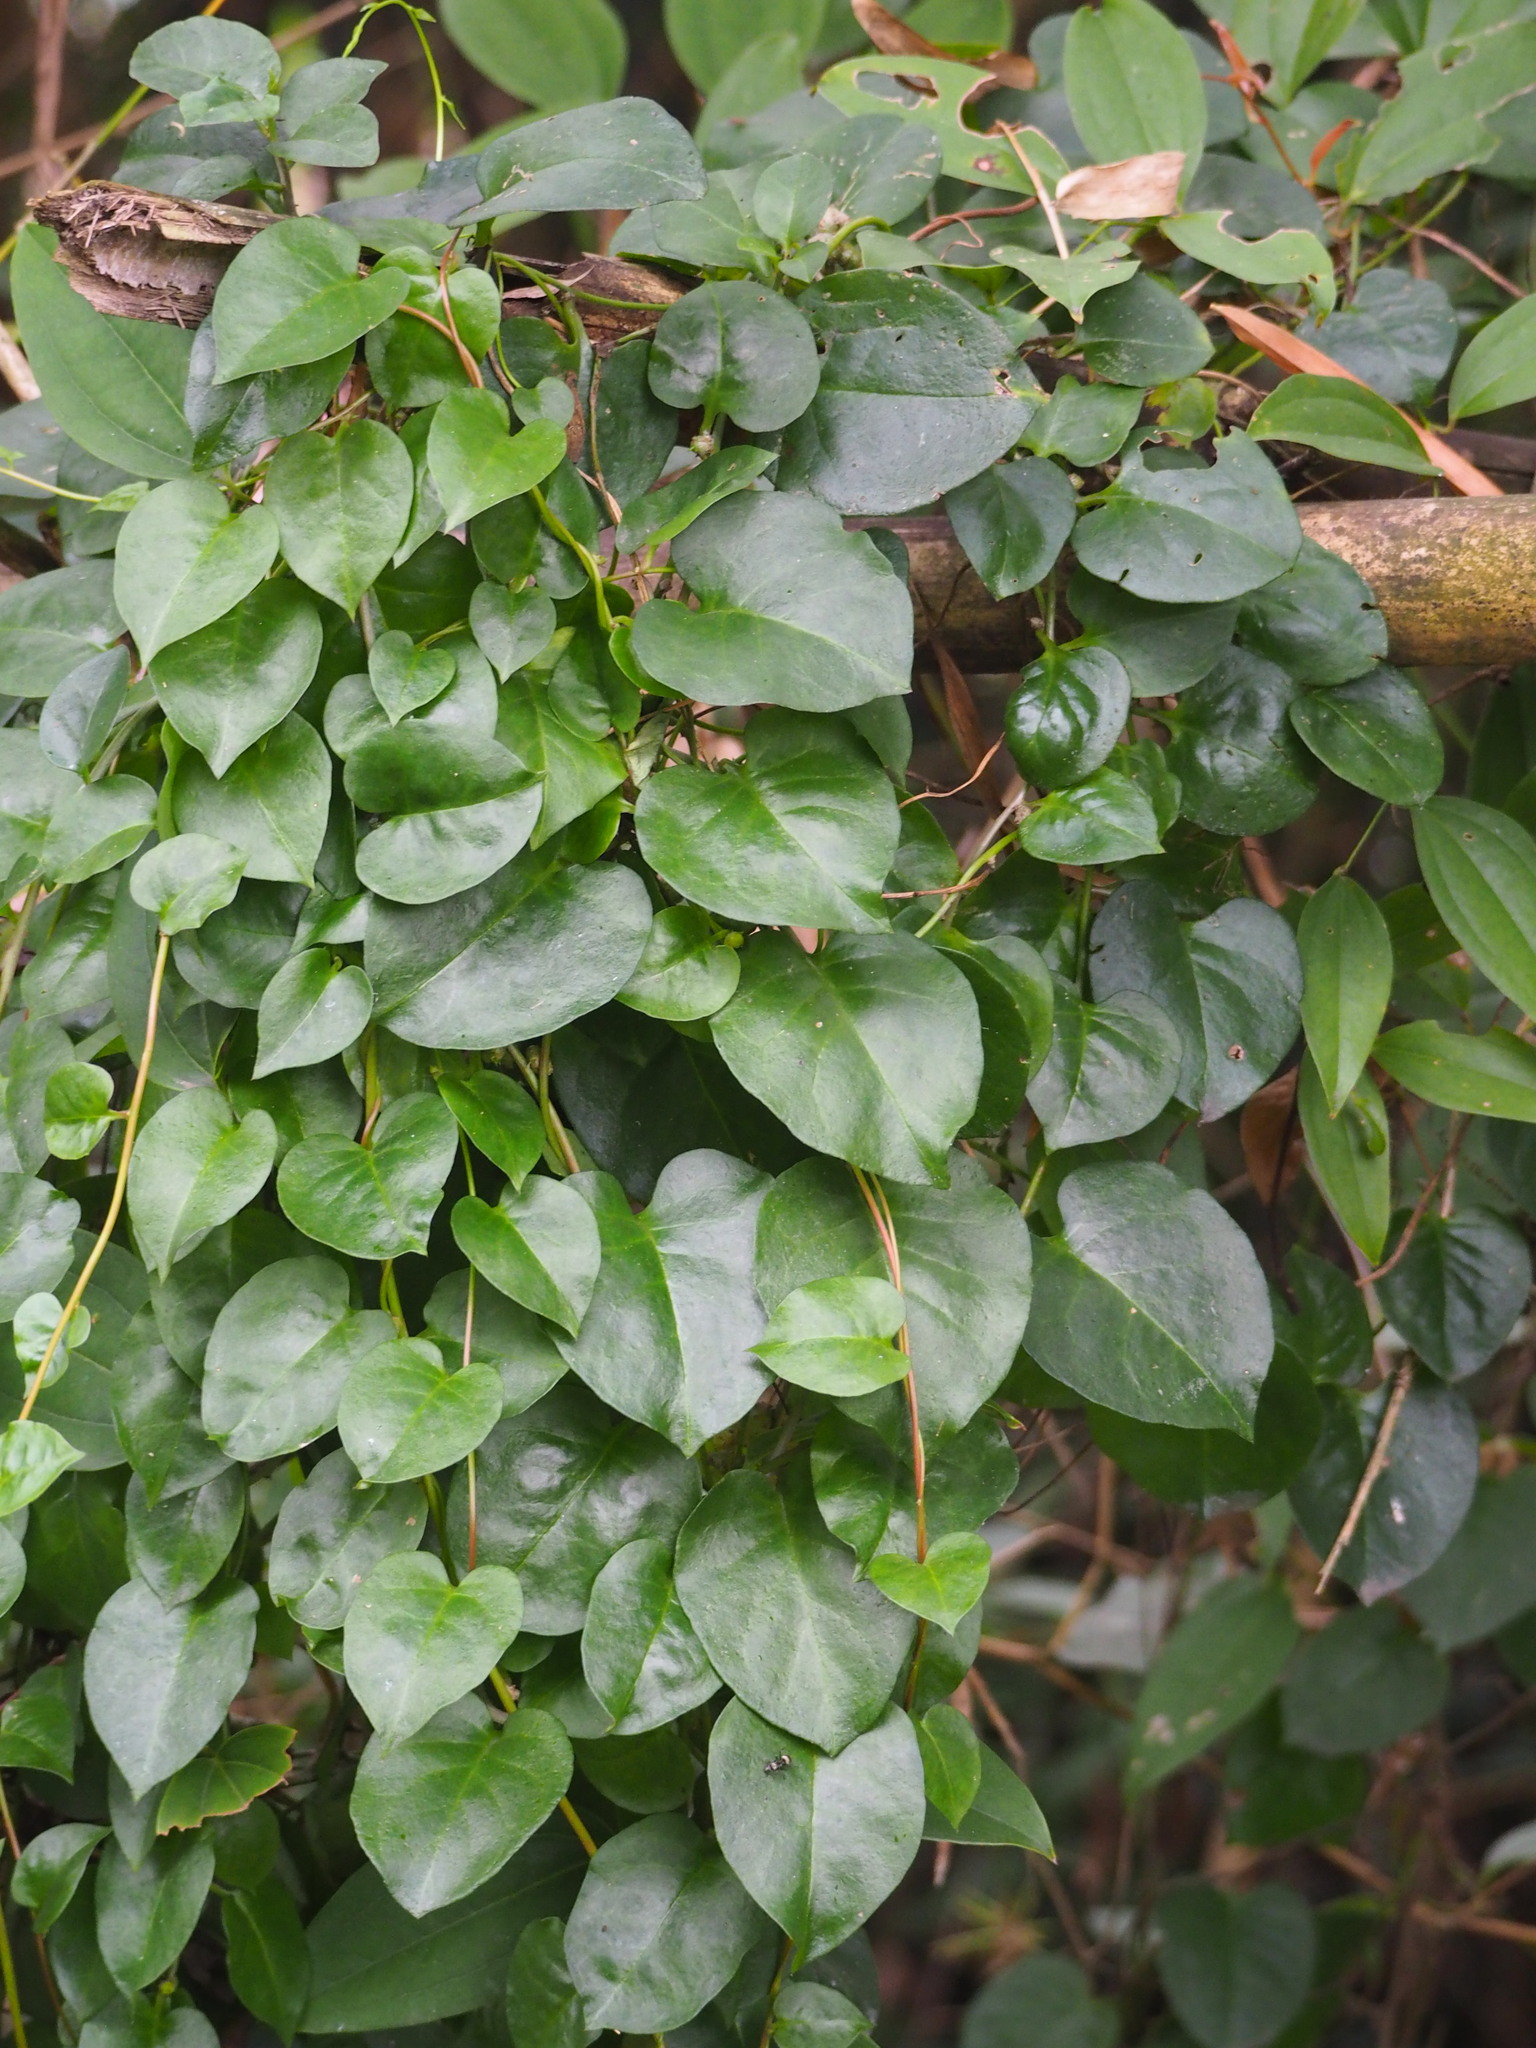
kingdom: Plantae
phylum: Tracheophyta
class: Magnoliopsida
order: Caryophyllales
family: Basellaceae
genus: Anredera
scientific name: Anredera cordifolia
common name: Heartleaf madeiravine
